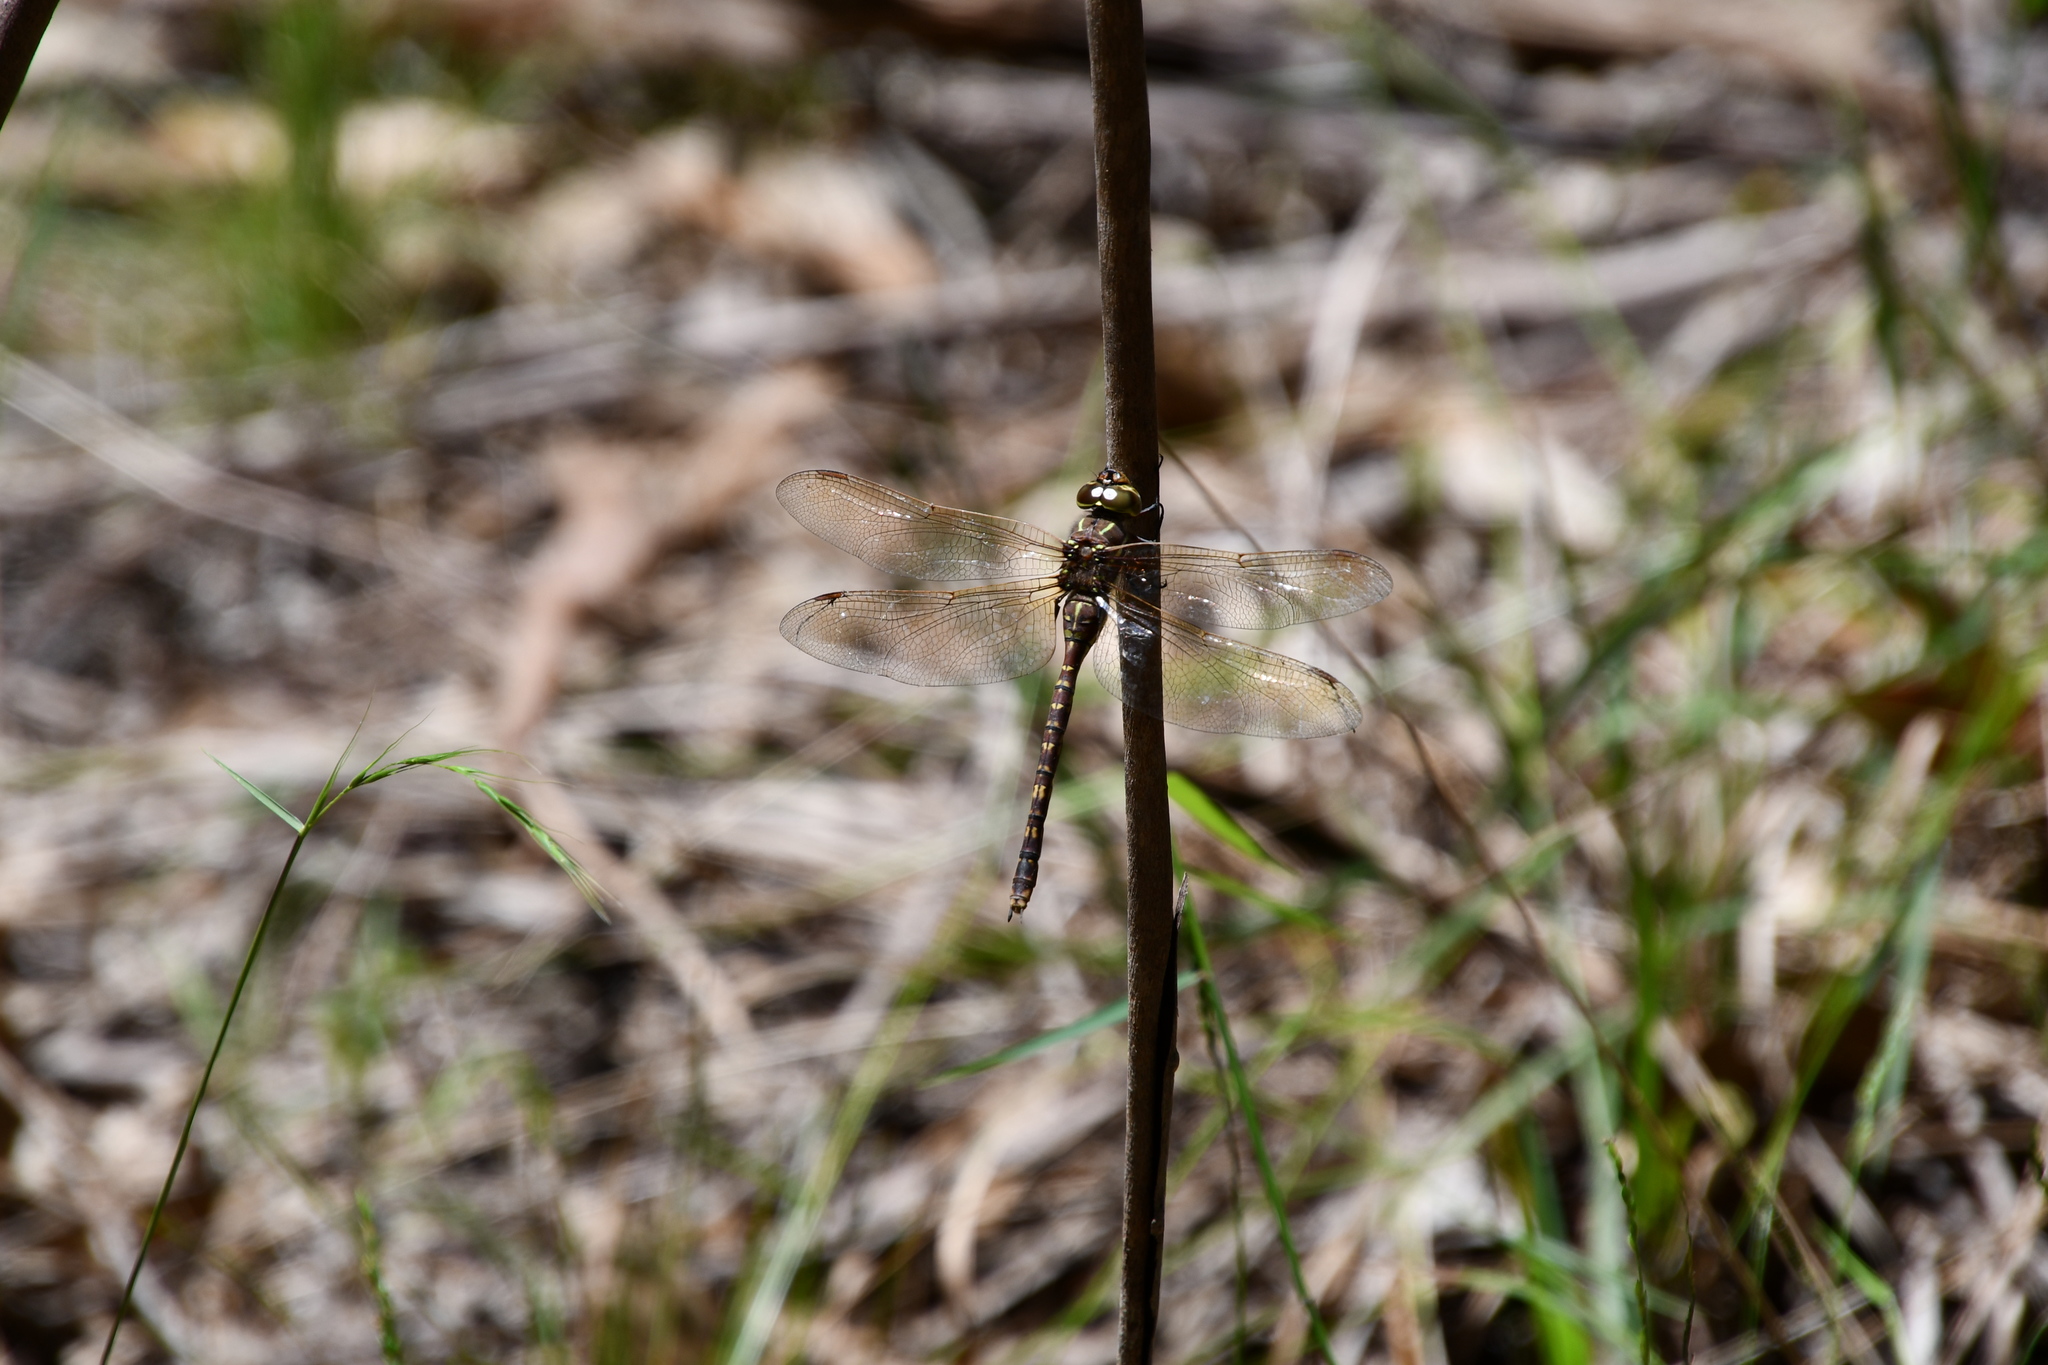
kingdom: Animalia
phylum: Arthropoda
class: Insecta
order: Odonata
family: Aeshnidae
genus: Aeshna
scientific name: Aeshna brevistyla
